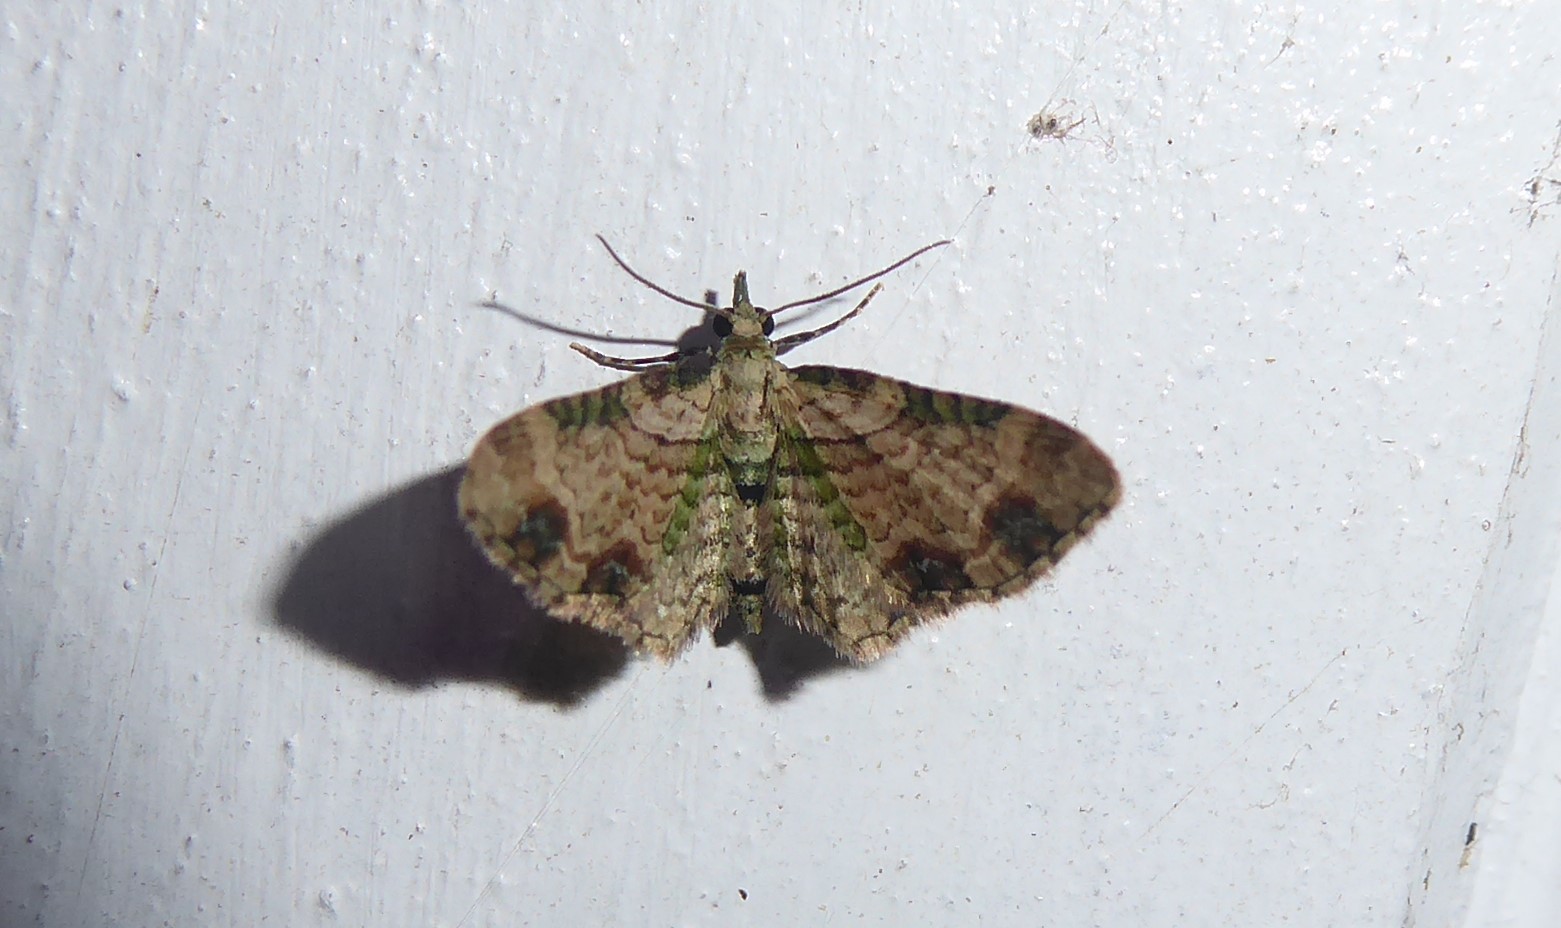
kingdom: Animalia
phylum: Arthropoda
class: Insecta
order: Lepidoptera
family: Geometridae
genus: Chloroclystis
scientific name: Chloroclystis
